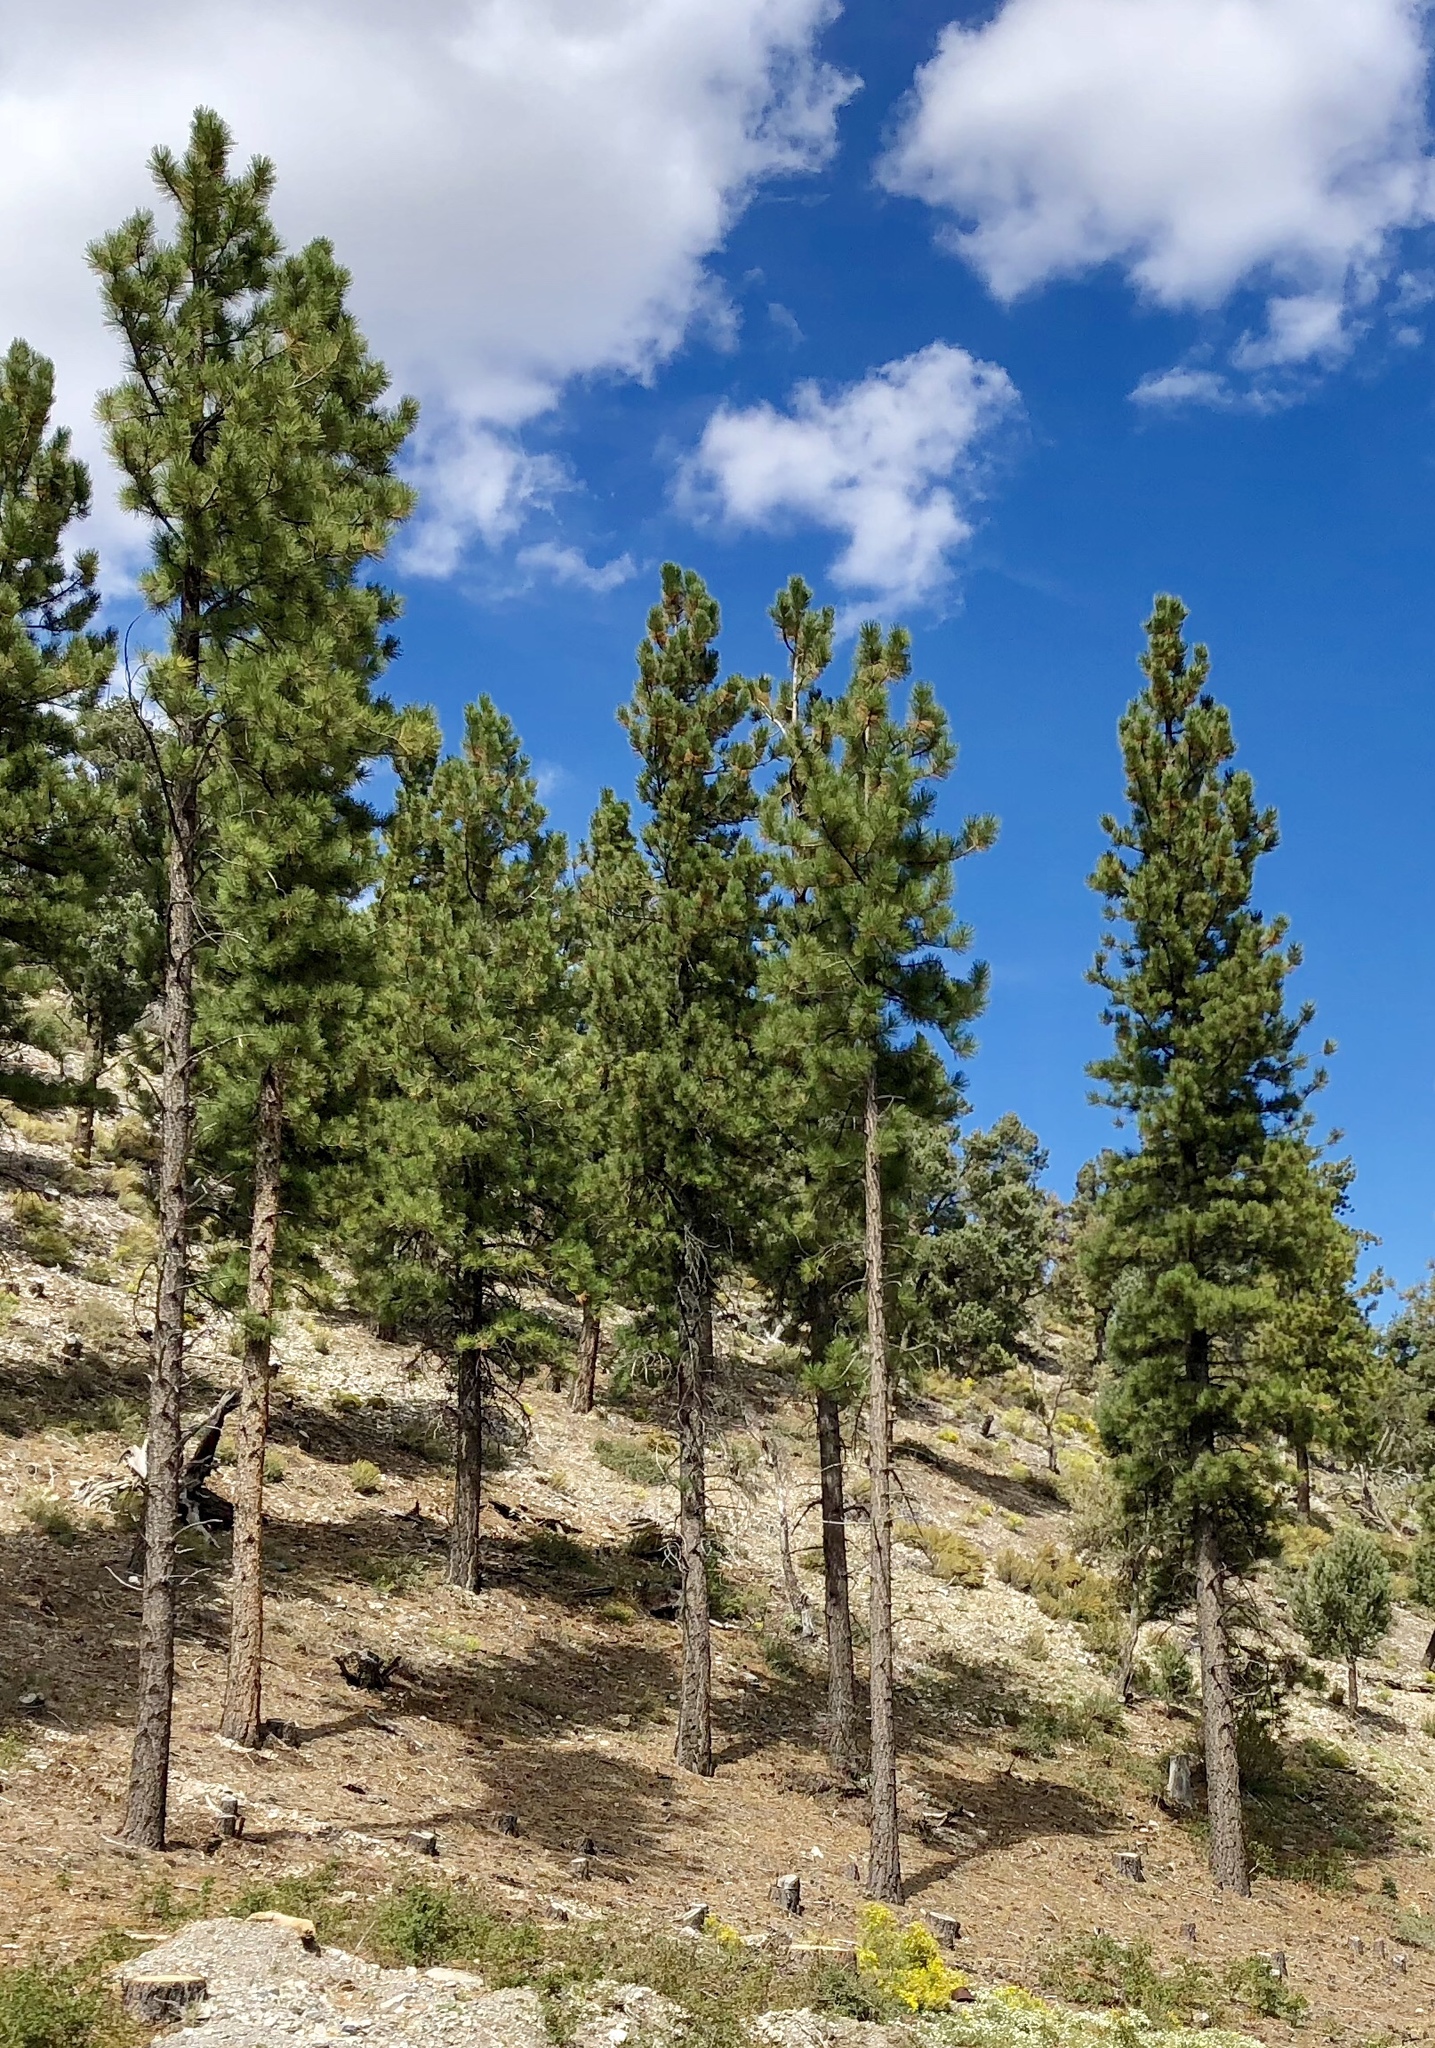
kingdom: Plantae
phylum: Tracheophyta
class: Pinopsida
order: Pinales
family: Pinaceae
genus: Pinus
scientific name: Pinus ponderosa
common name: Western yellow-pine
